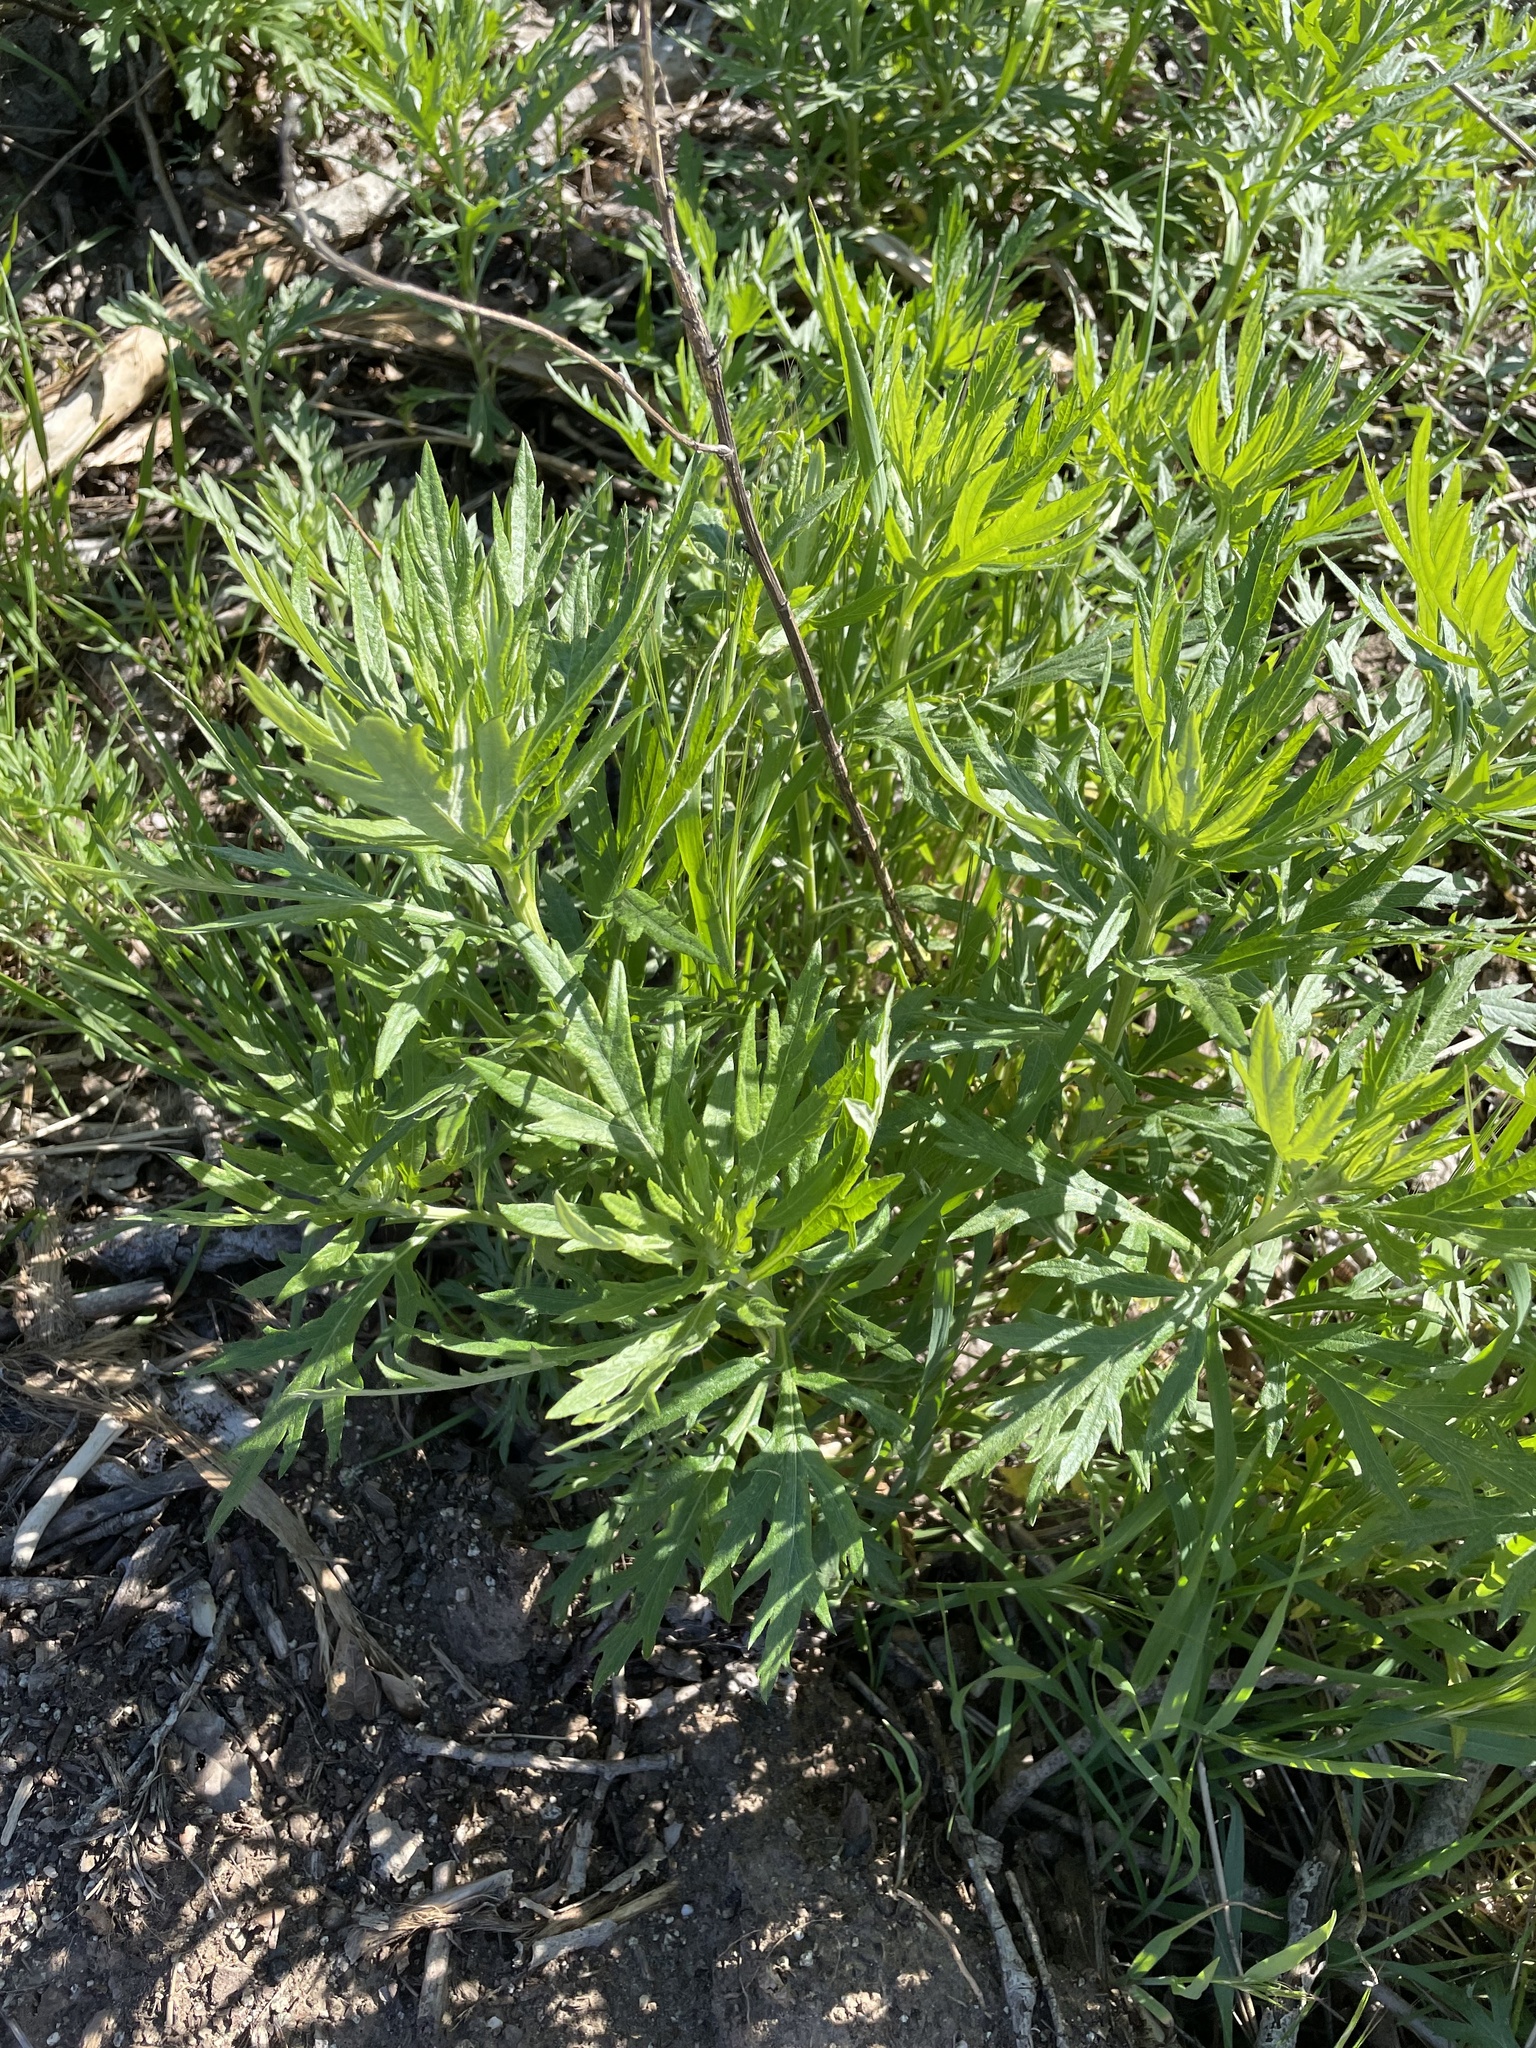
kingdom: Plantae
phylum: Tracheophyta
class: Magnoliopsida
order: Asterales
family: Asteraceae
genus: Artemisia
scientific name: Artemisia douglasiana
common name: Northwest mugwort
